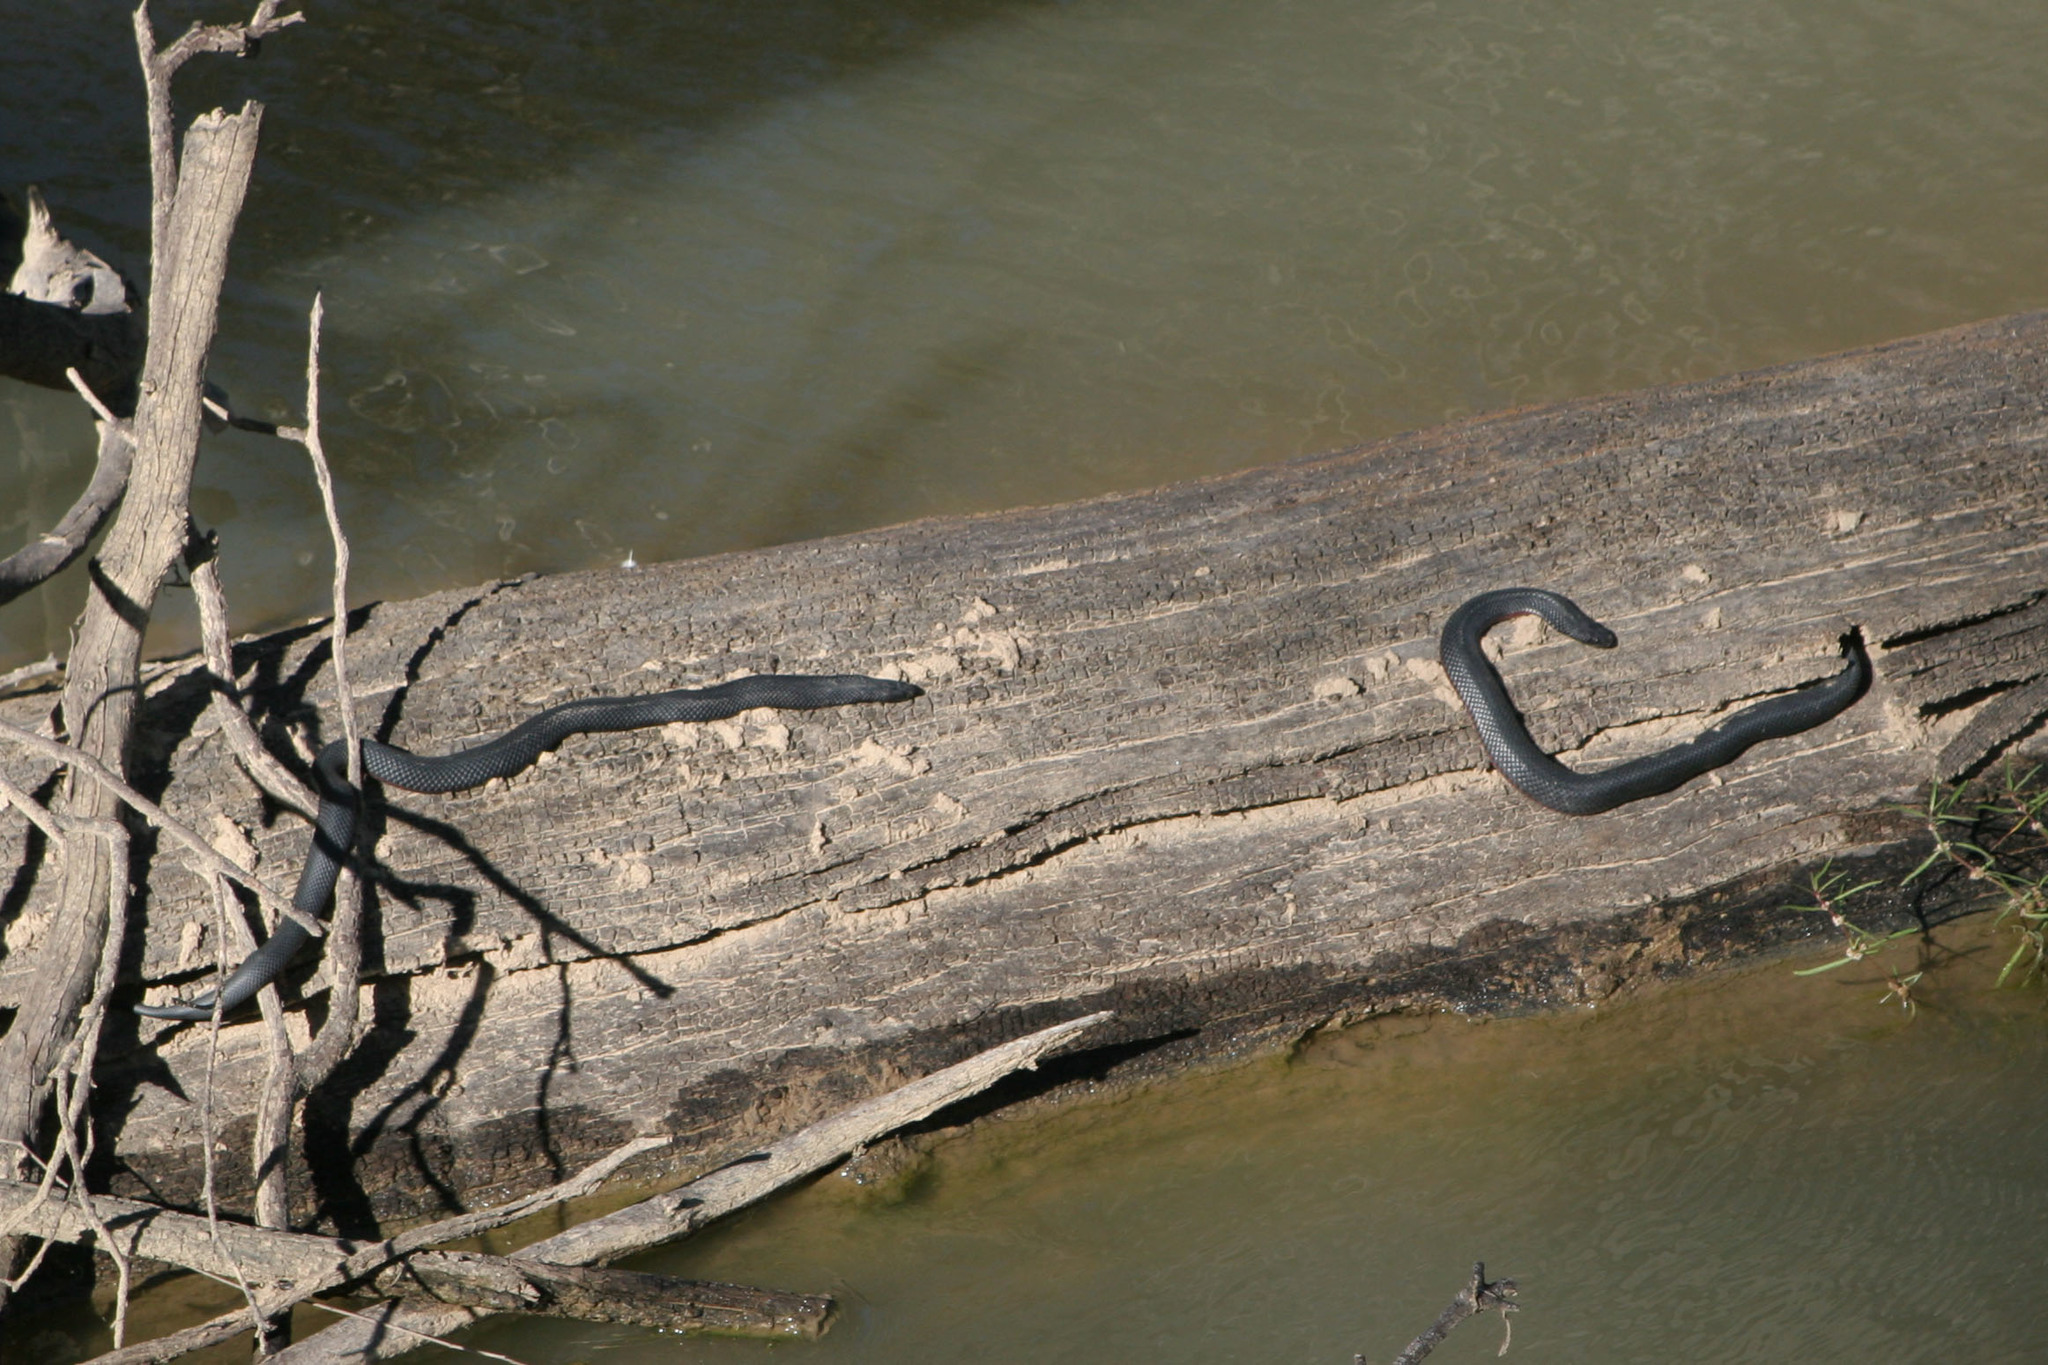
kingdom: Animalia
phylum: Chordata
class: Squamata
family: Elapidae
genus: Pseudechis
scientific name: Pseudechis porphyriacus
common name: Australian black snake
